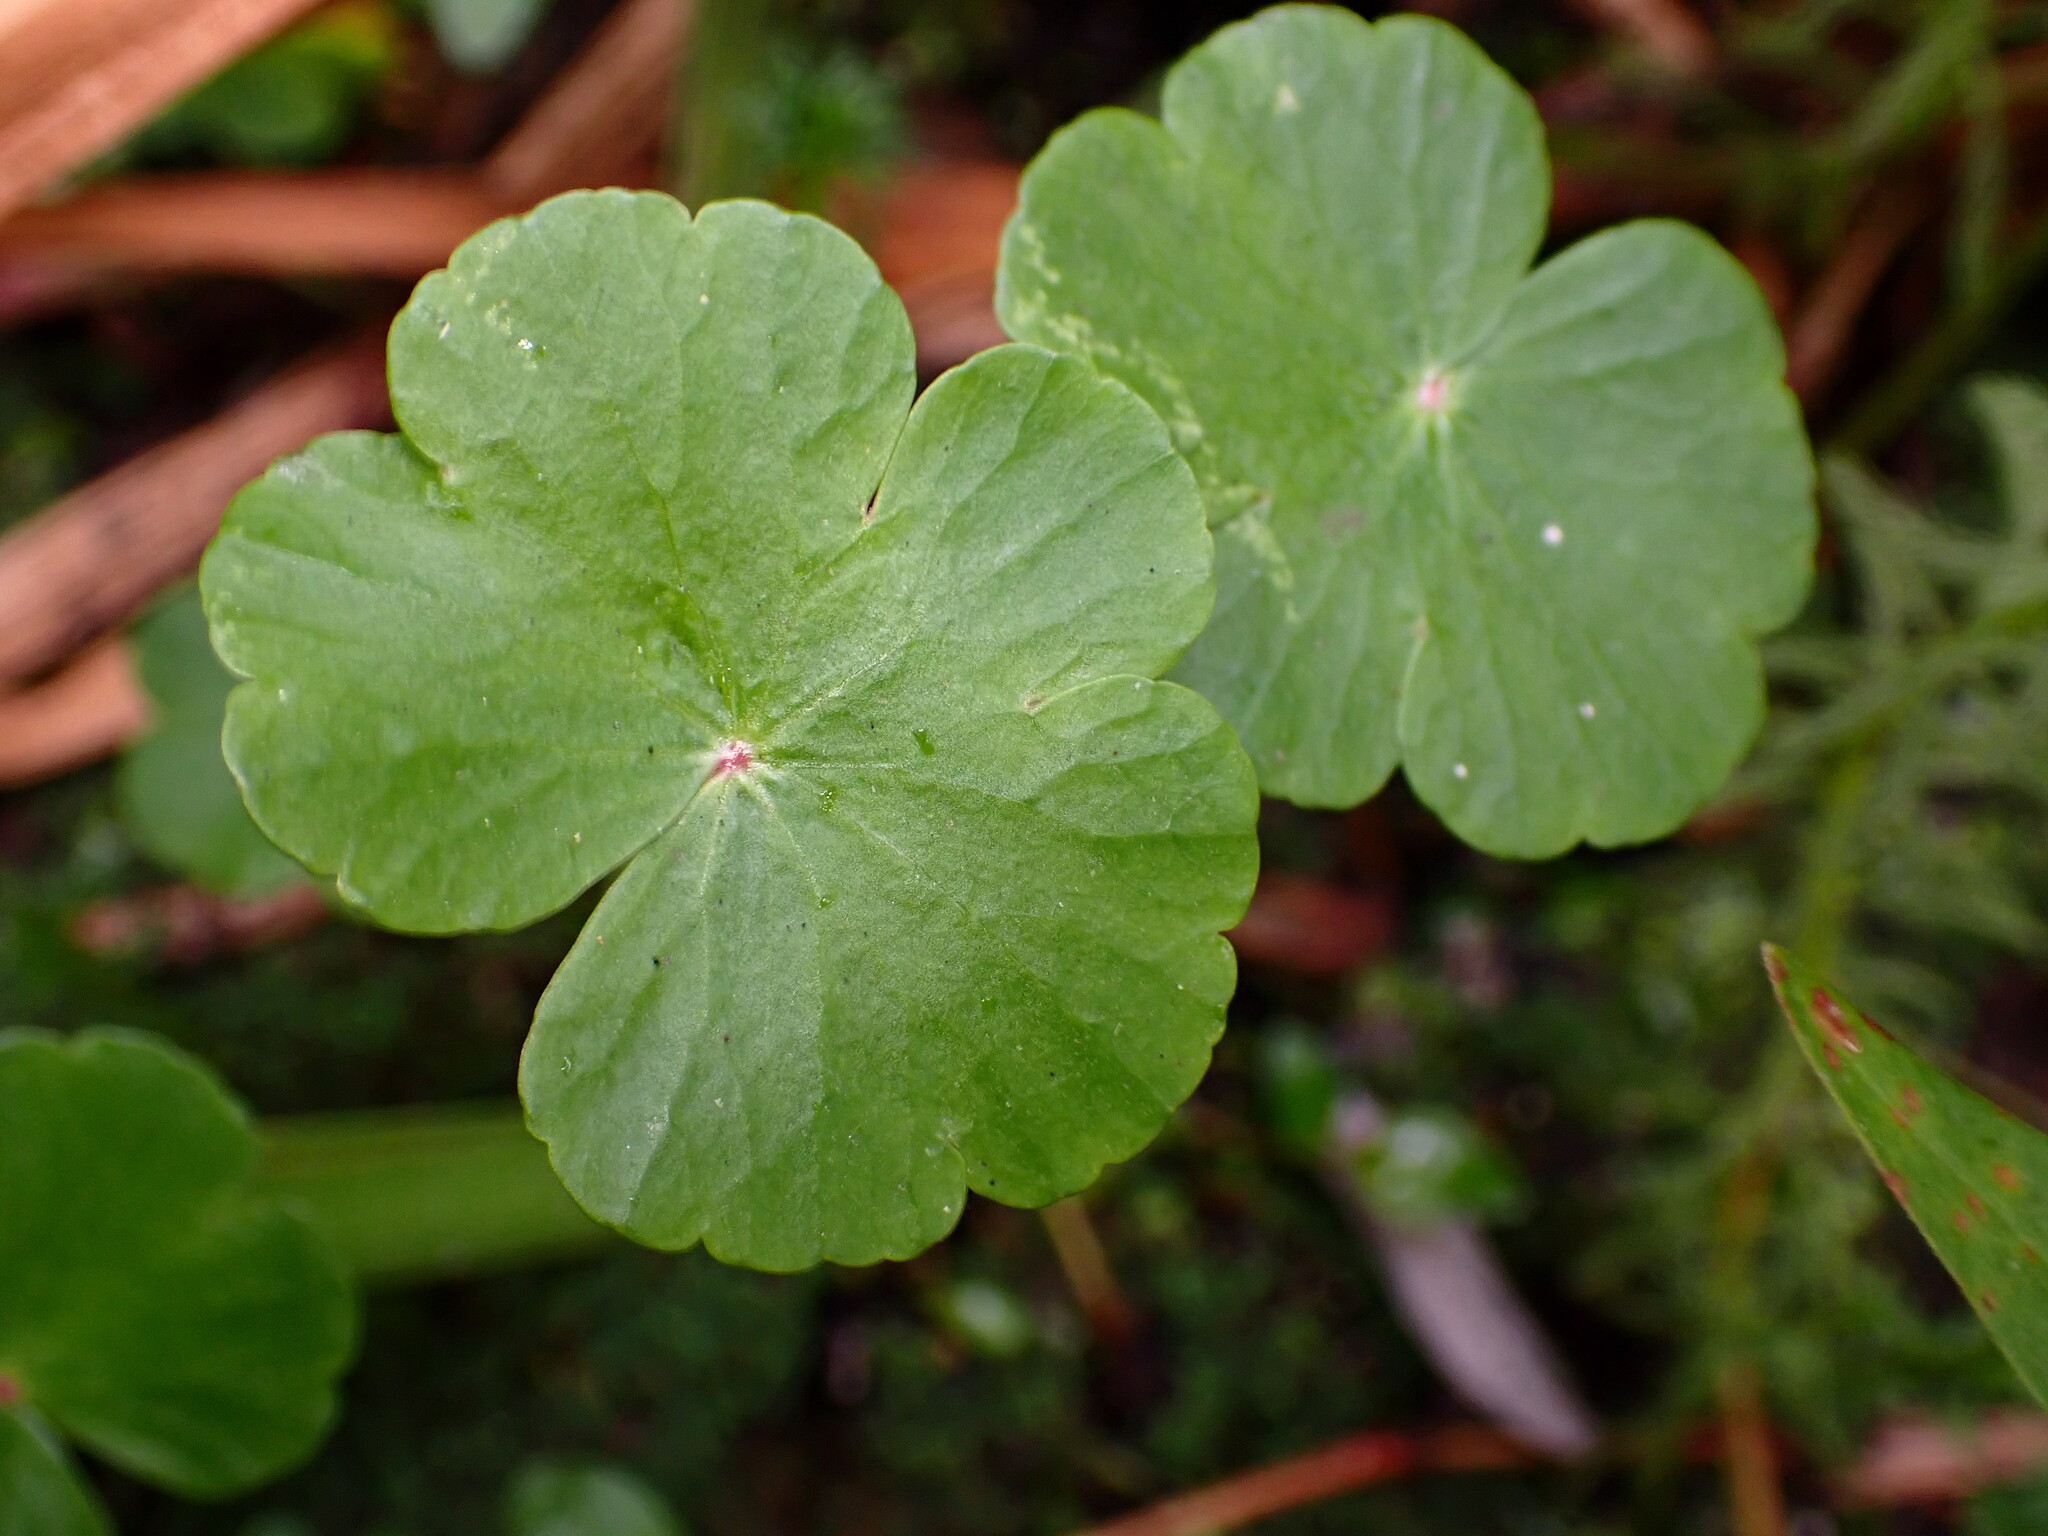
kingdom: Plantae
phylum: Tracheophyta
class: Magnoliopsida
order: Apiales
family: Araliaceae
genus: Hydrocotyle
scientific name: Hydrocotyle ranunculoides
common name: Floating pennywort
